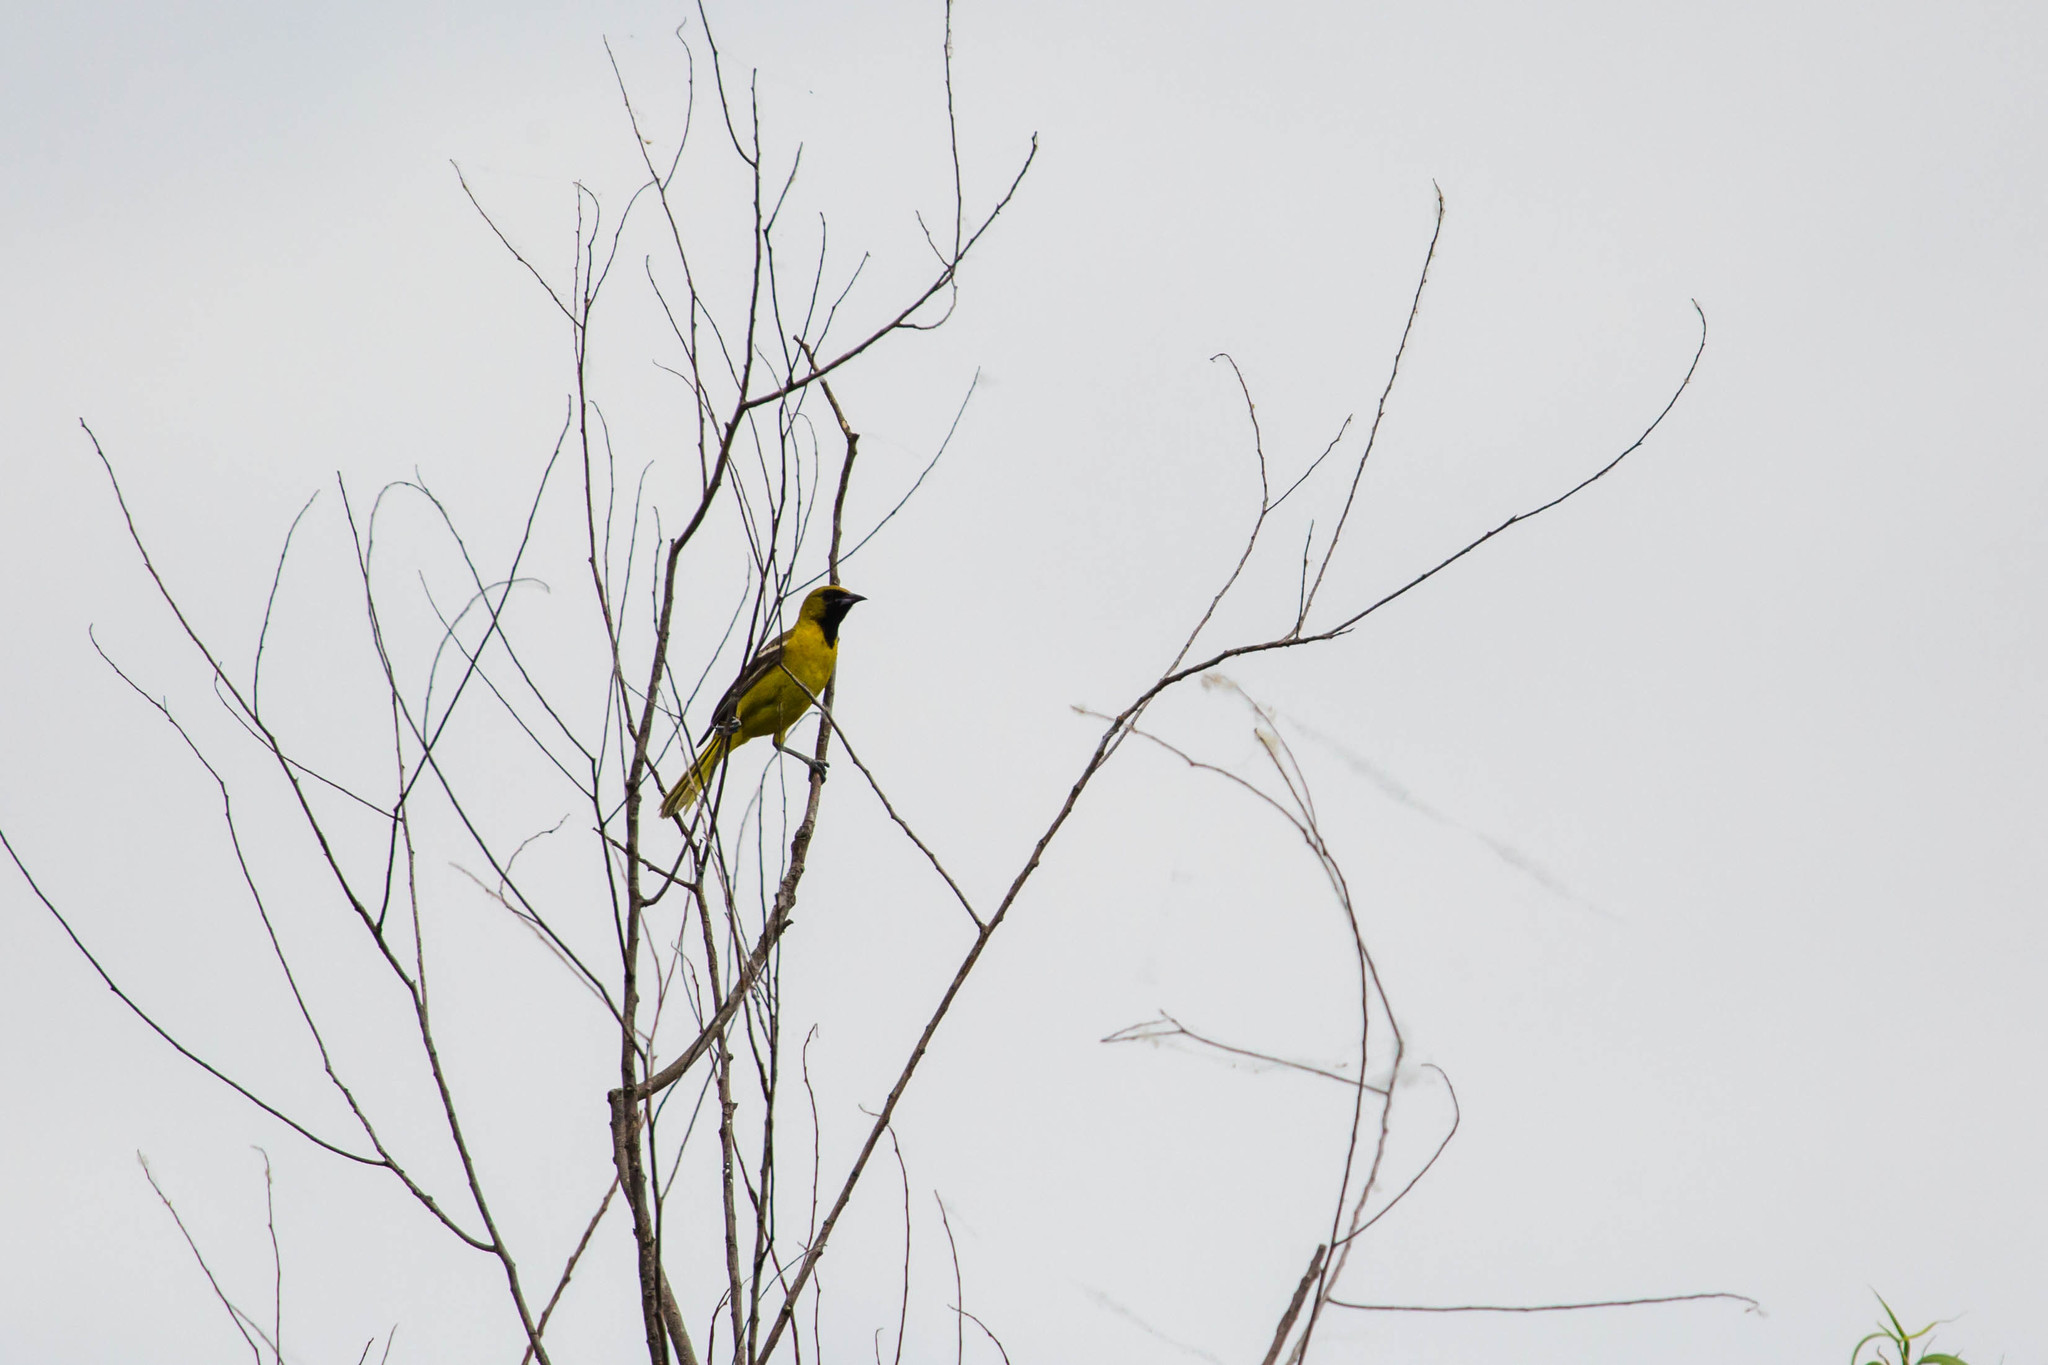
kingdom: Animalia
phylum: Chordata
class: Aves
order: Passeriformes
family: Icteridae
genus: Icterus
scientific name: Icterus spurius
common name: Orchard oriole
